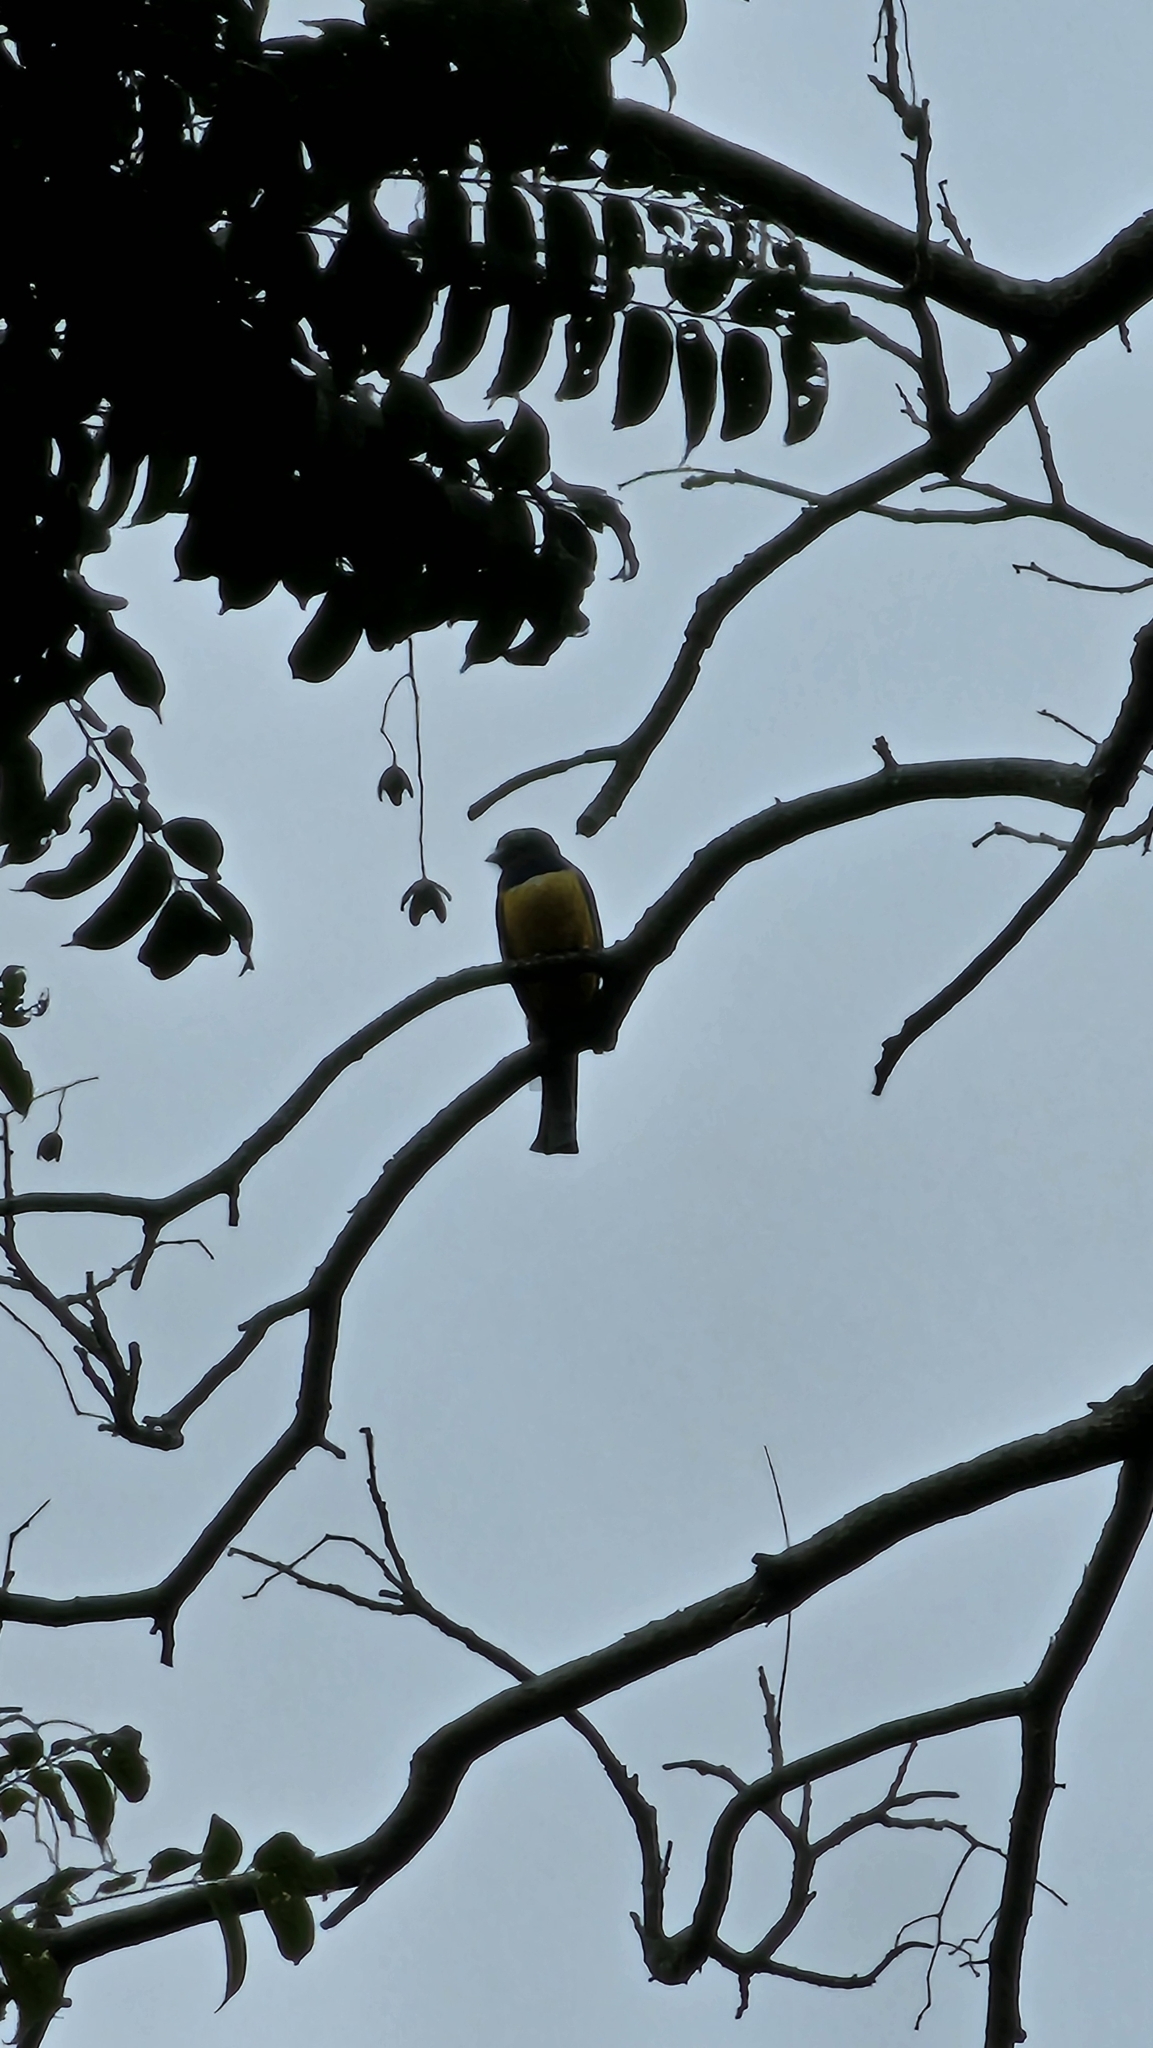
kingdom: Animalia
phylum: Chordata
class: Aves
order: Trogoniformes
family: Trogonidae
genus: Trogon
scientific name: Trogon caligatus
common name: Gartered trogon
